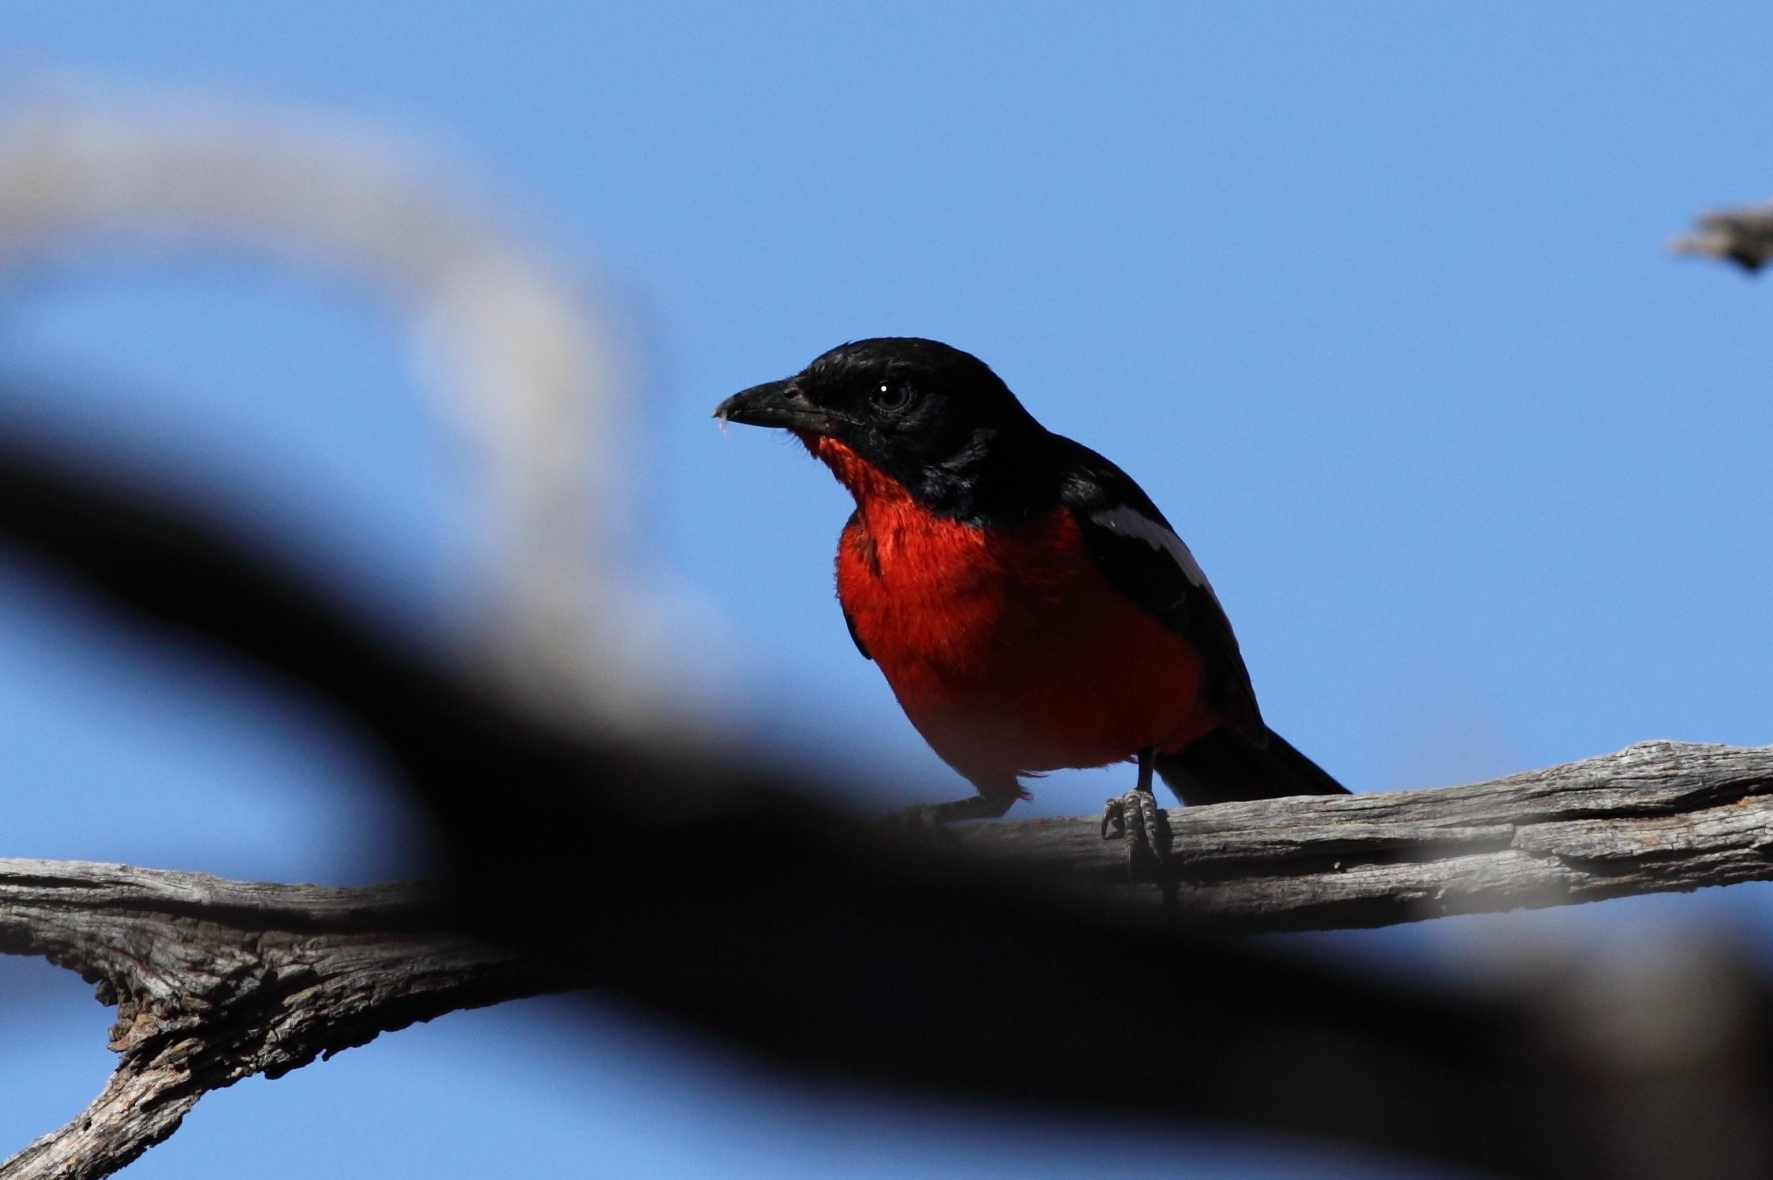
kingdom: Animalia
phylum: Chordata
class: Aves
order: Passeriformes
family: Malaconotidae
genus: Laniarius
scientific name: Laniarius atrococcineus
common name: Crimson-breasted shrike
